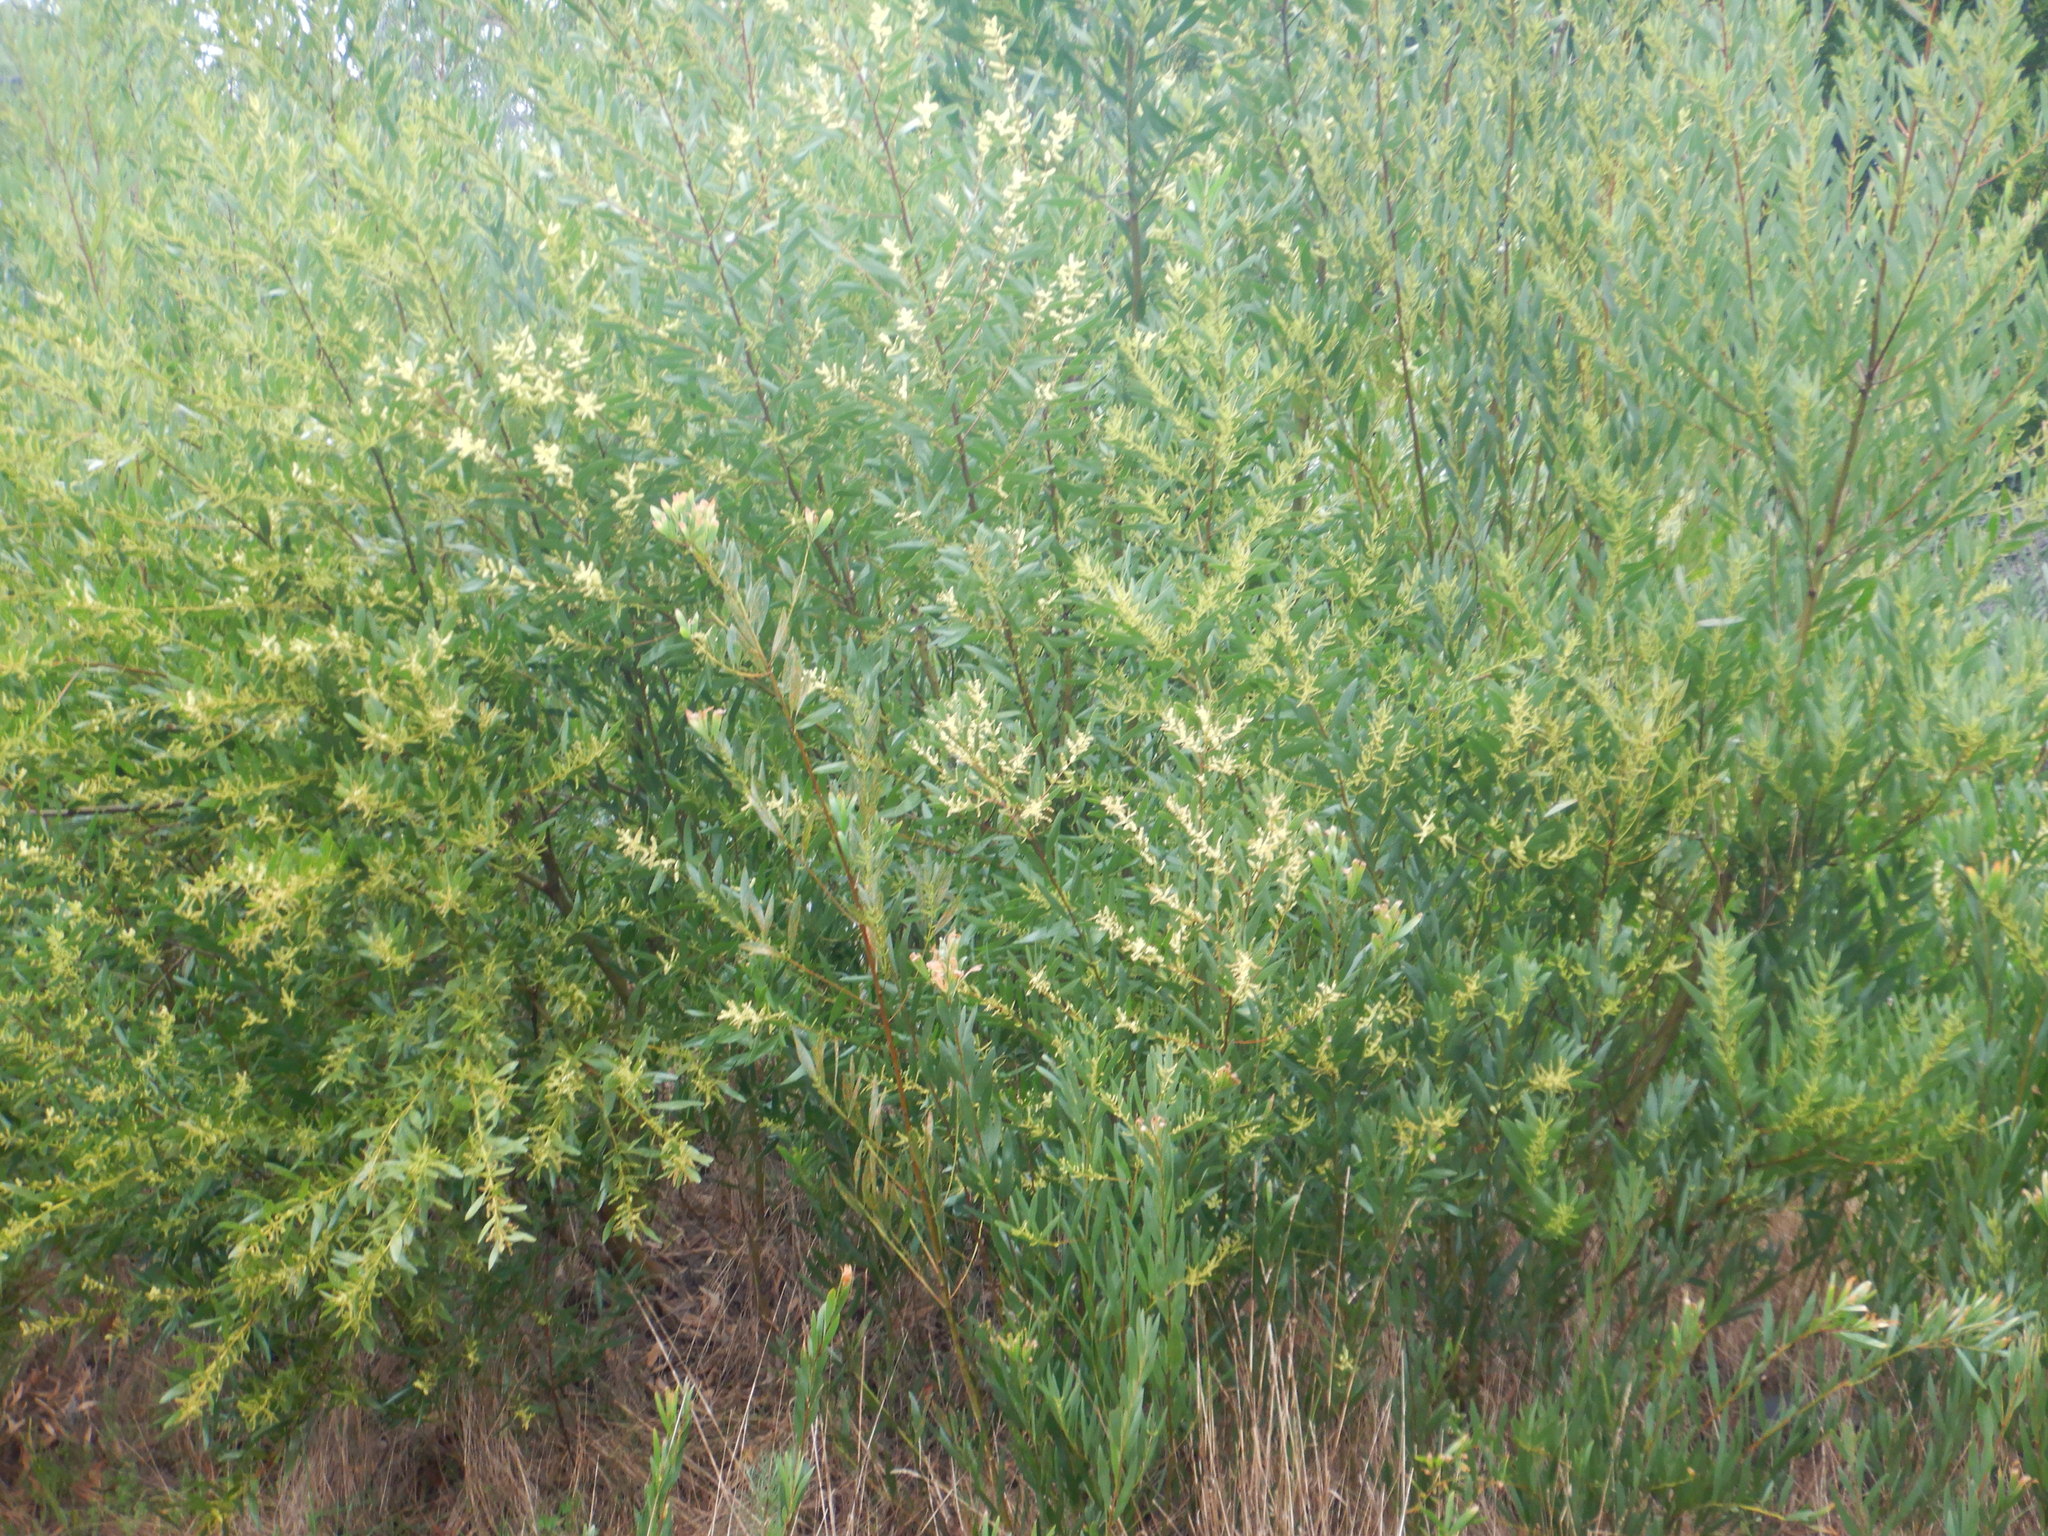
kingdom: Plantae
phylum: Tracheophyta
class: Magnoliopsida
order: Fabales
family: Fabaceae
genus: Acacia
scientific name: Acacia longifolia
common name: Sydney golden wattle
